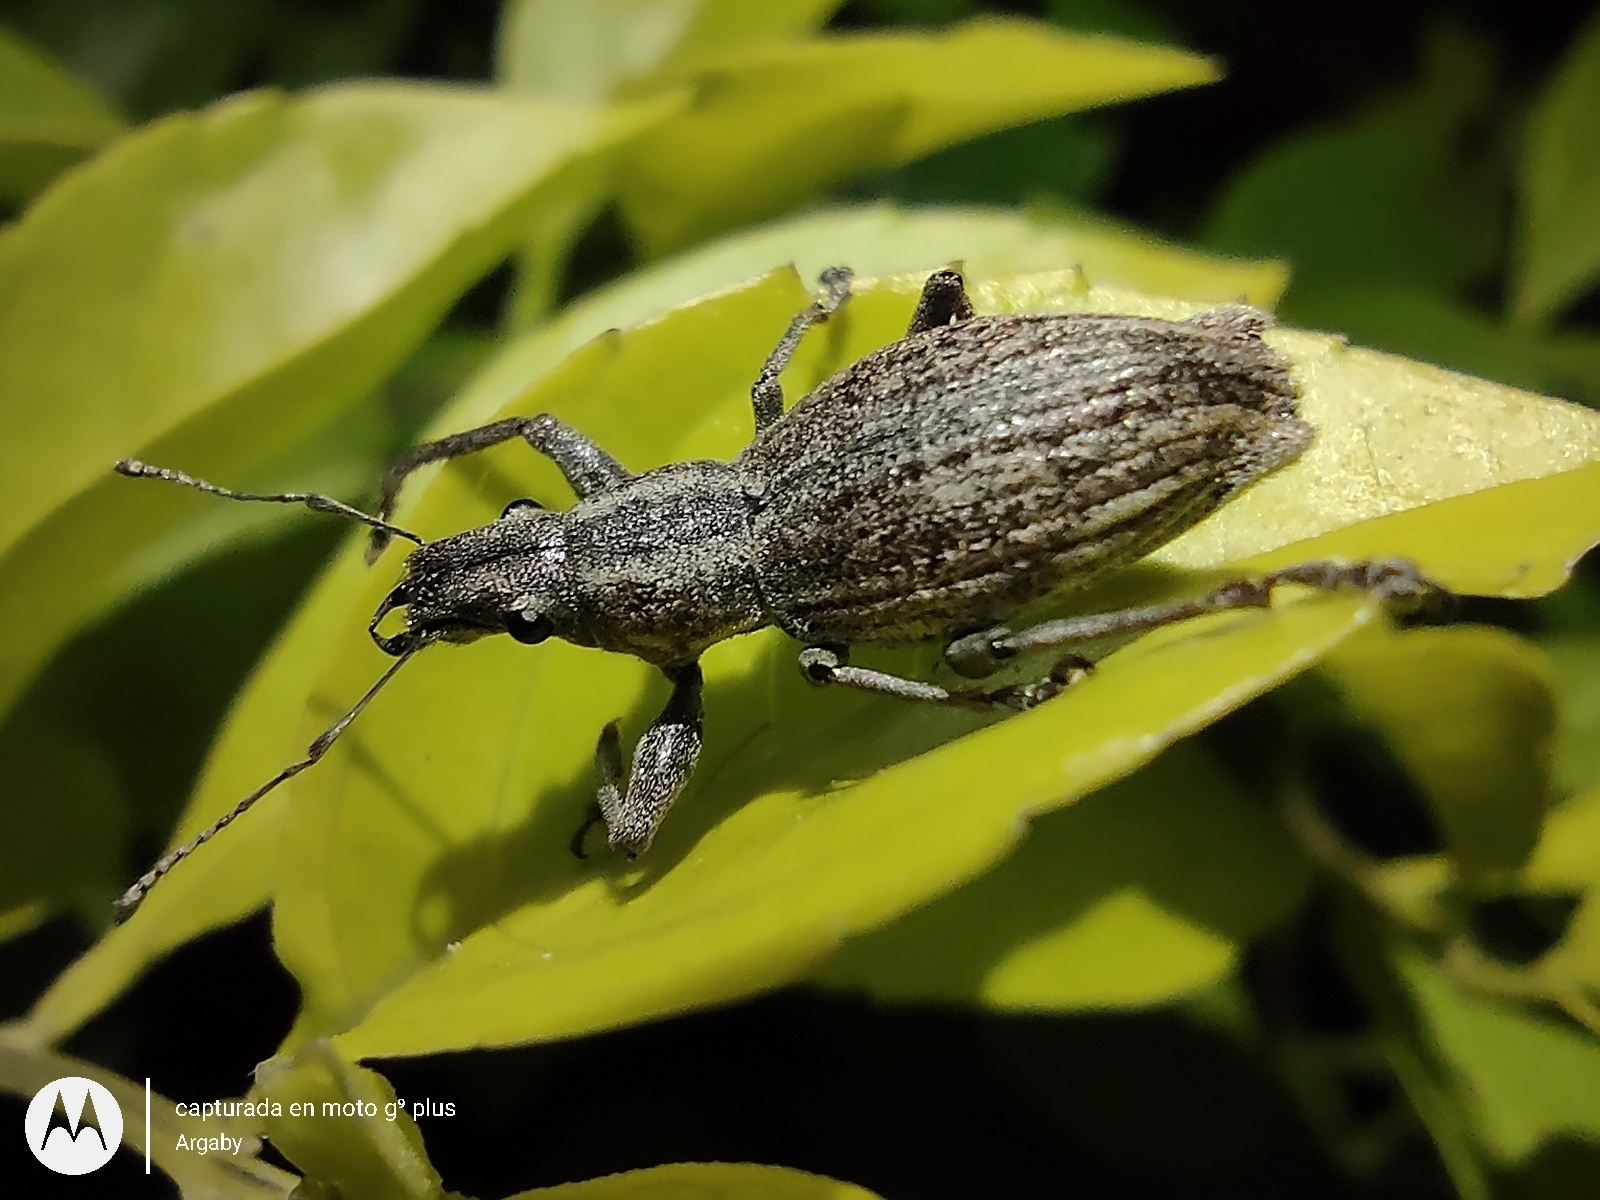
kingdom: Animalia
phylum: Arthropoda
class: Insecta
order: Coleoptera
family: Curculionidae
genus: Naupactus
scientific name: Naupactus xanthographus
